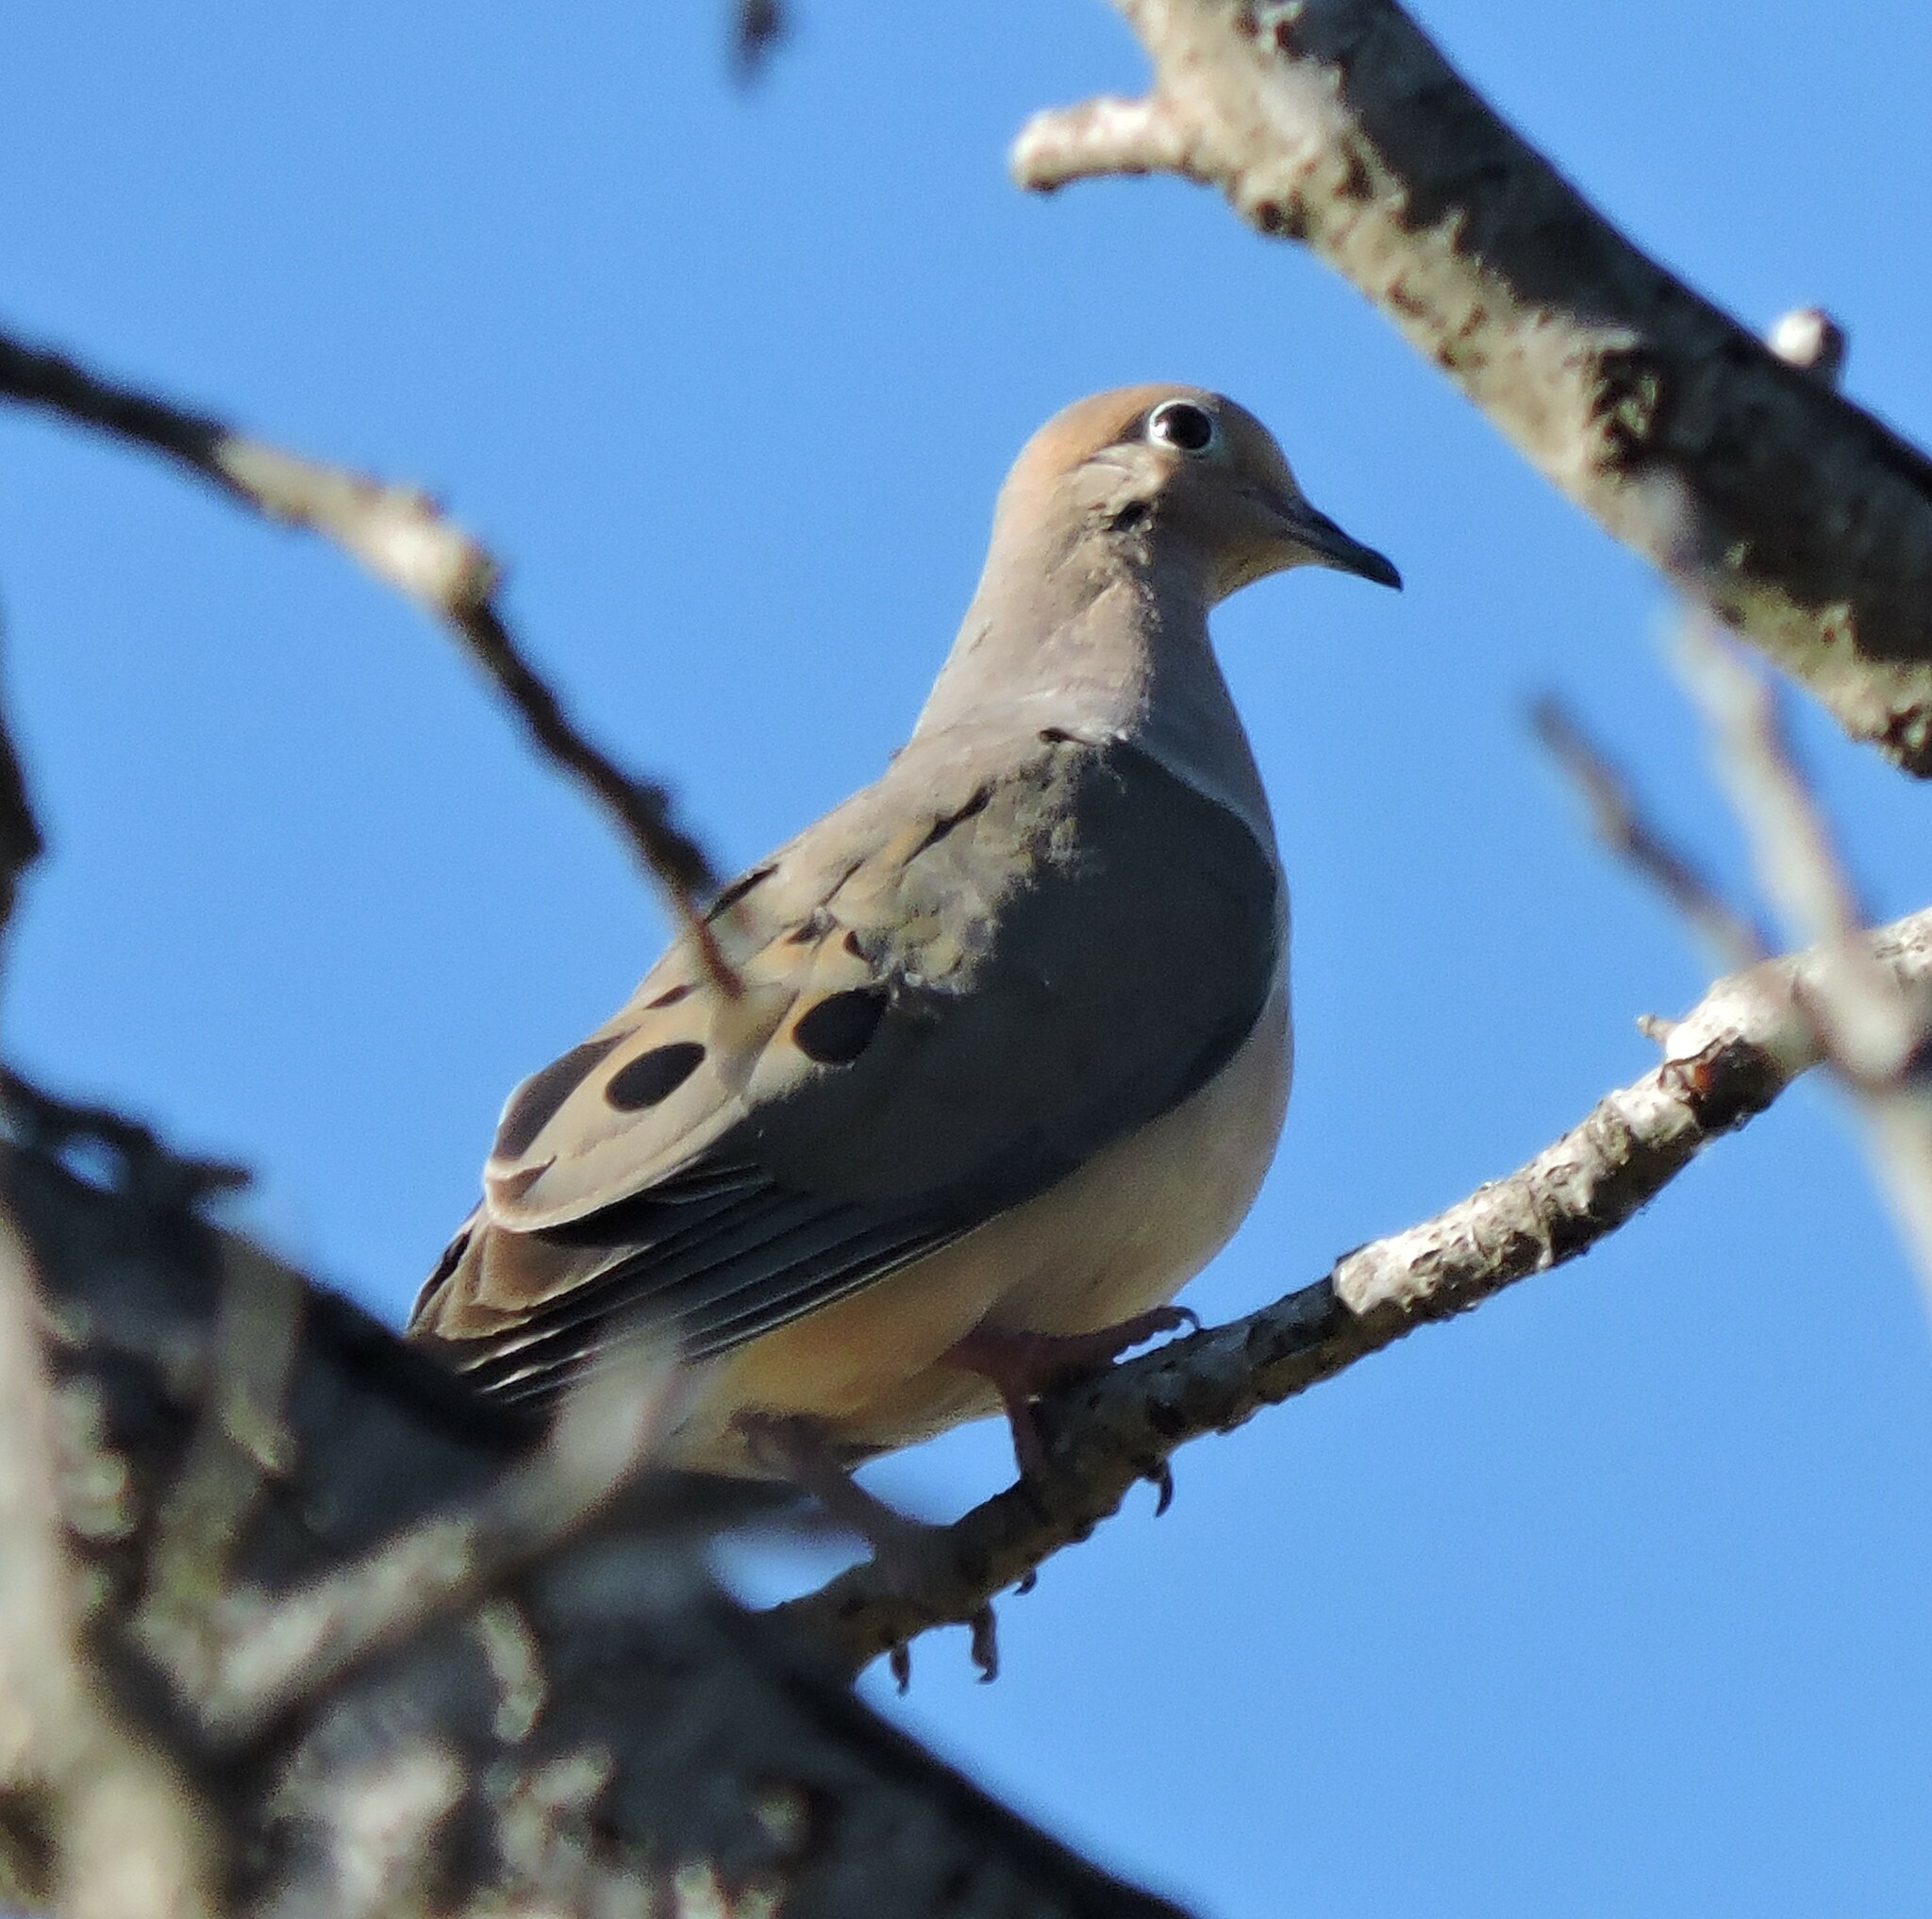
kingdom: Animalia
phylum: Chordata
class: Aves
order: Columbiformes
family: Columbidae
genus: Zenaida
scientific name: Zenaida macroura
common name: Mourning dove
